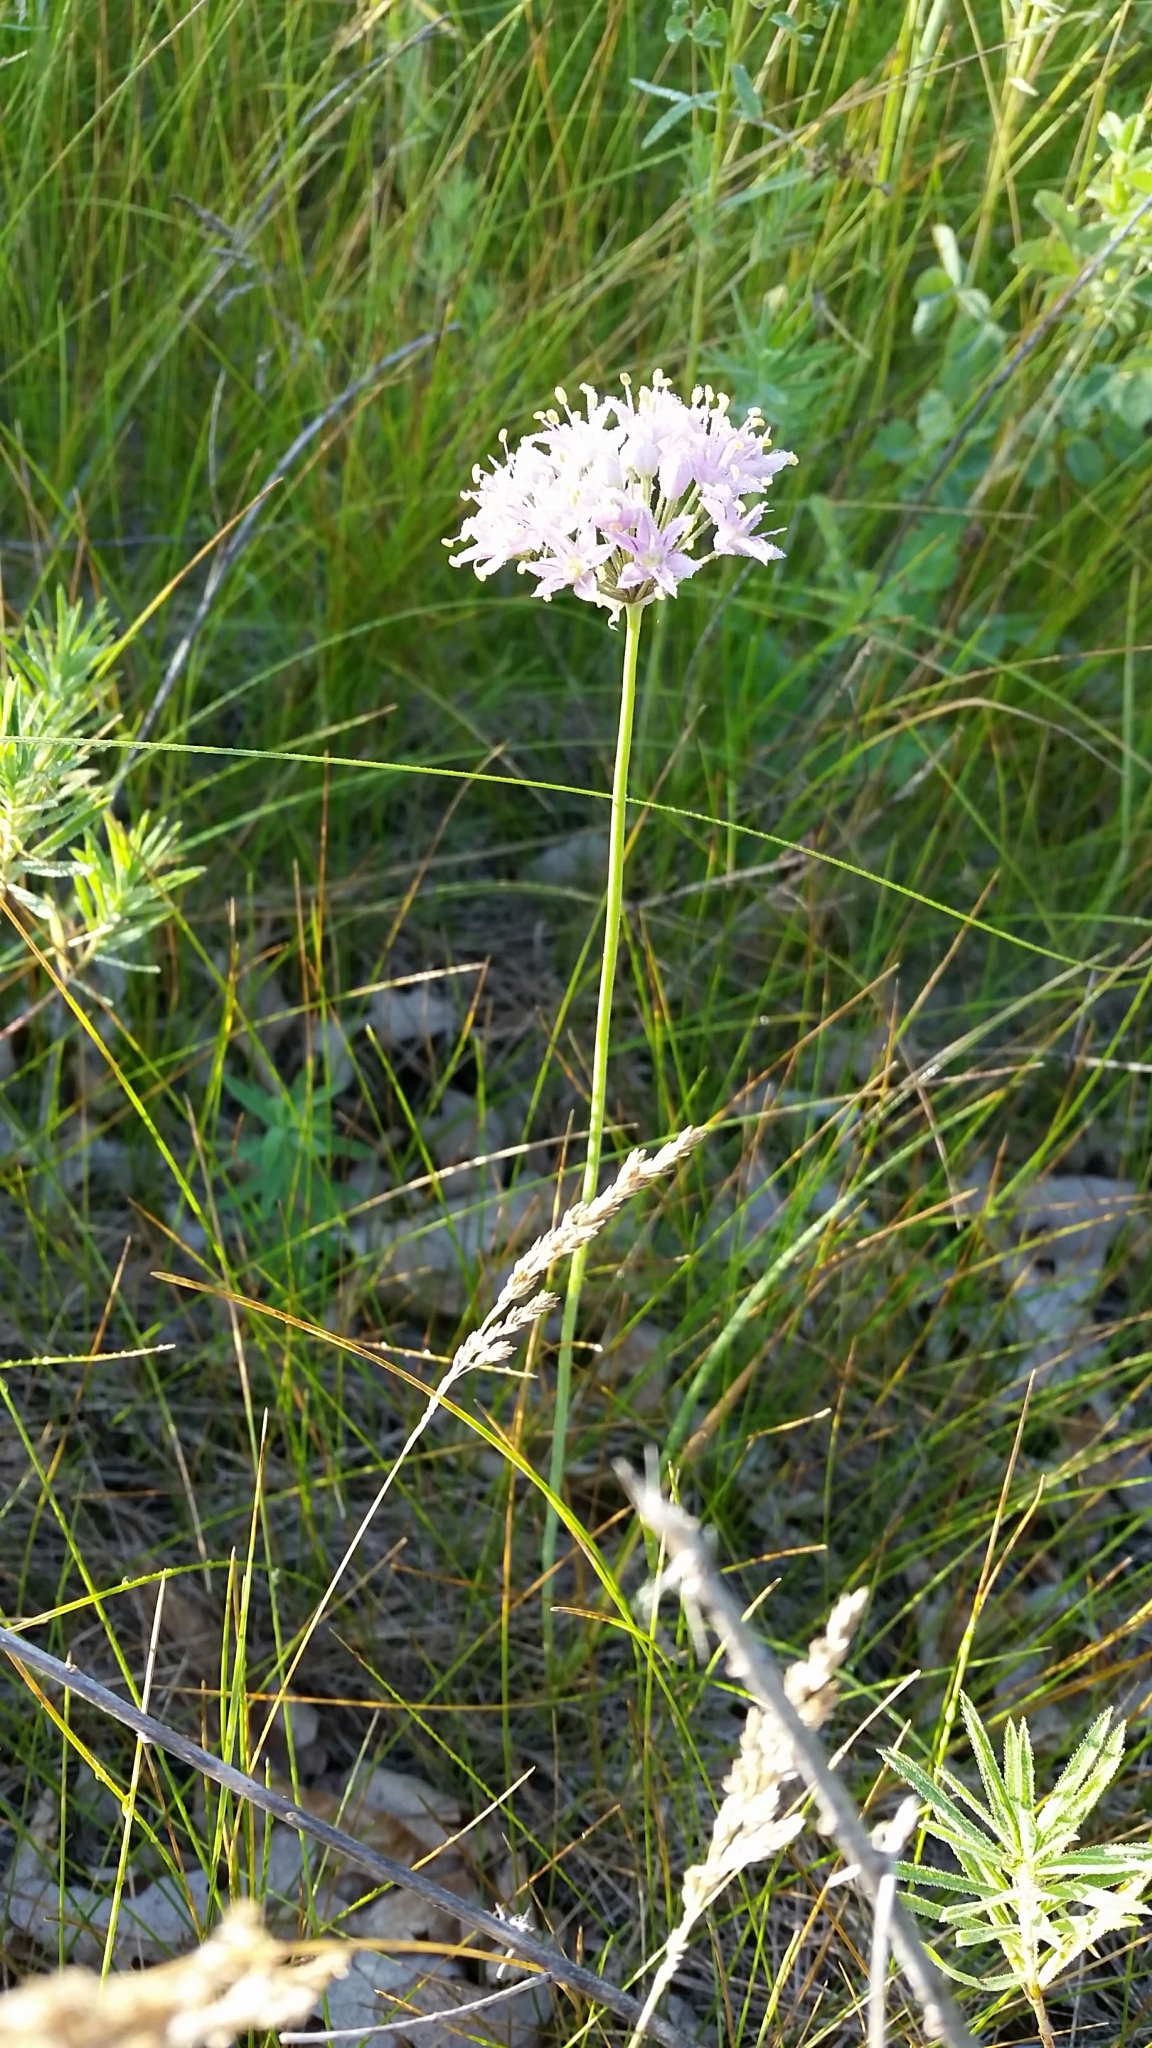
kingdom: Plantae
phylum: Tracheophyta
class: Liliopsida
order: Asparagales
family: Amaryllidaceae
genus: Allium
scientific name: Allium stellatum
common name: Autumn onion
